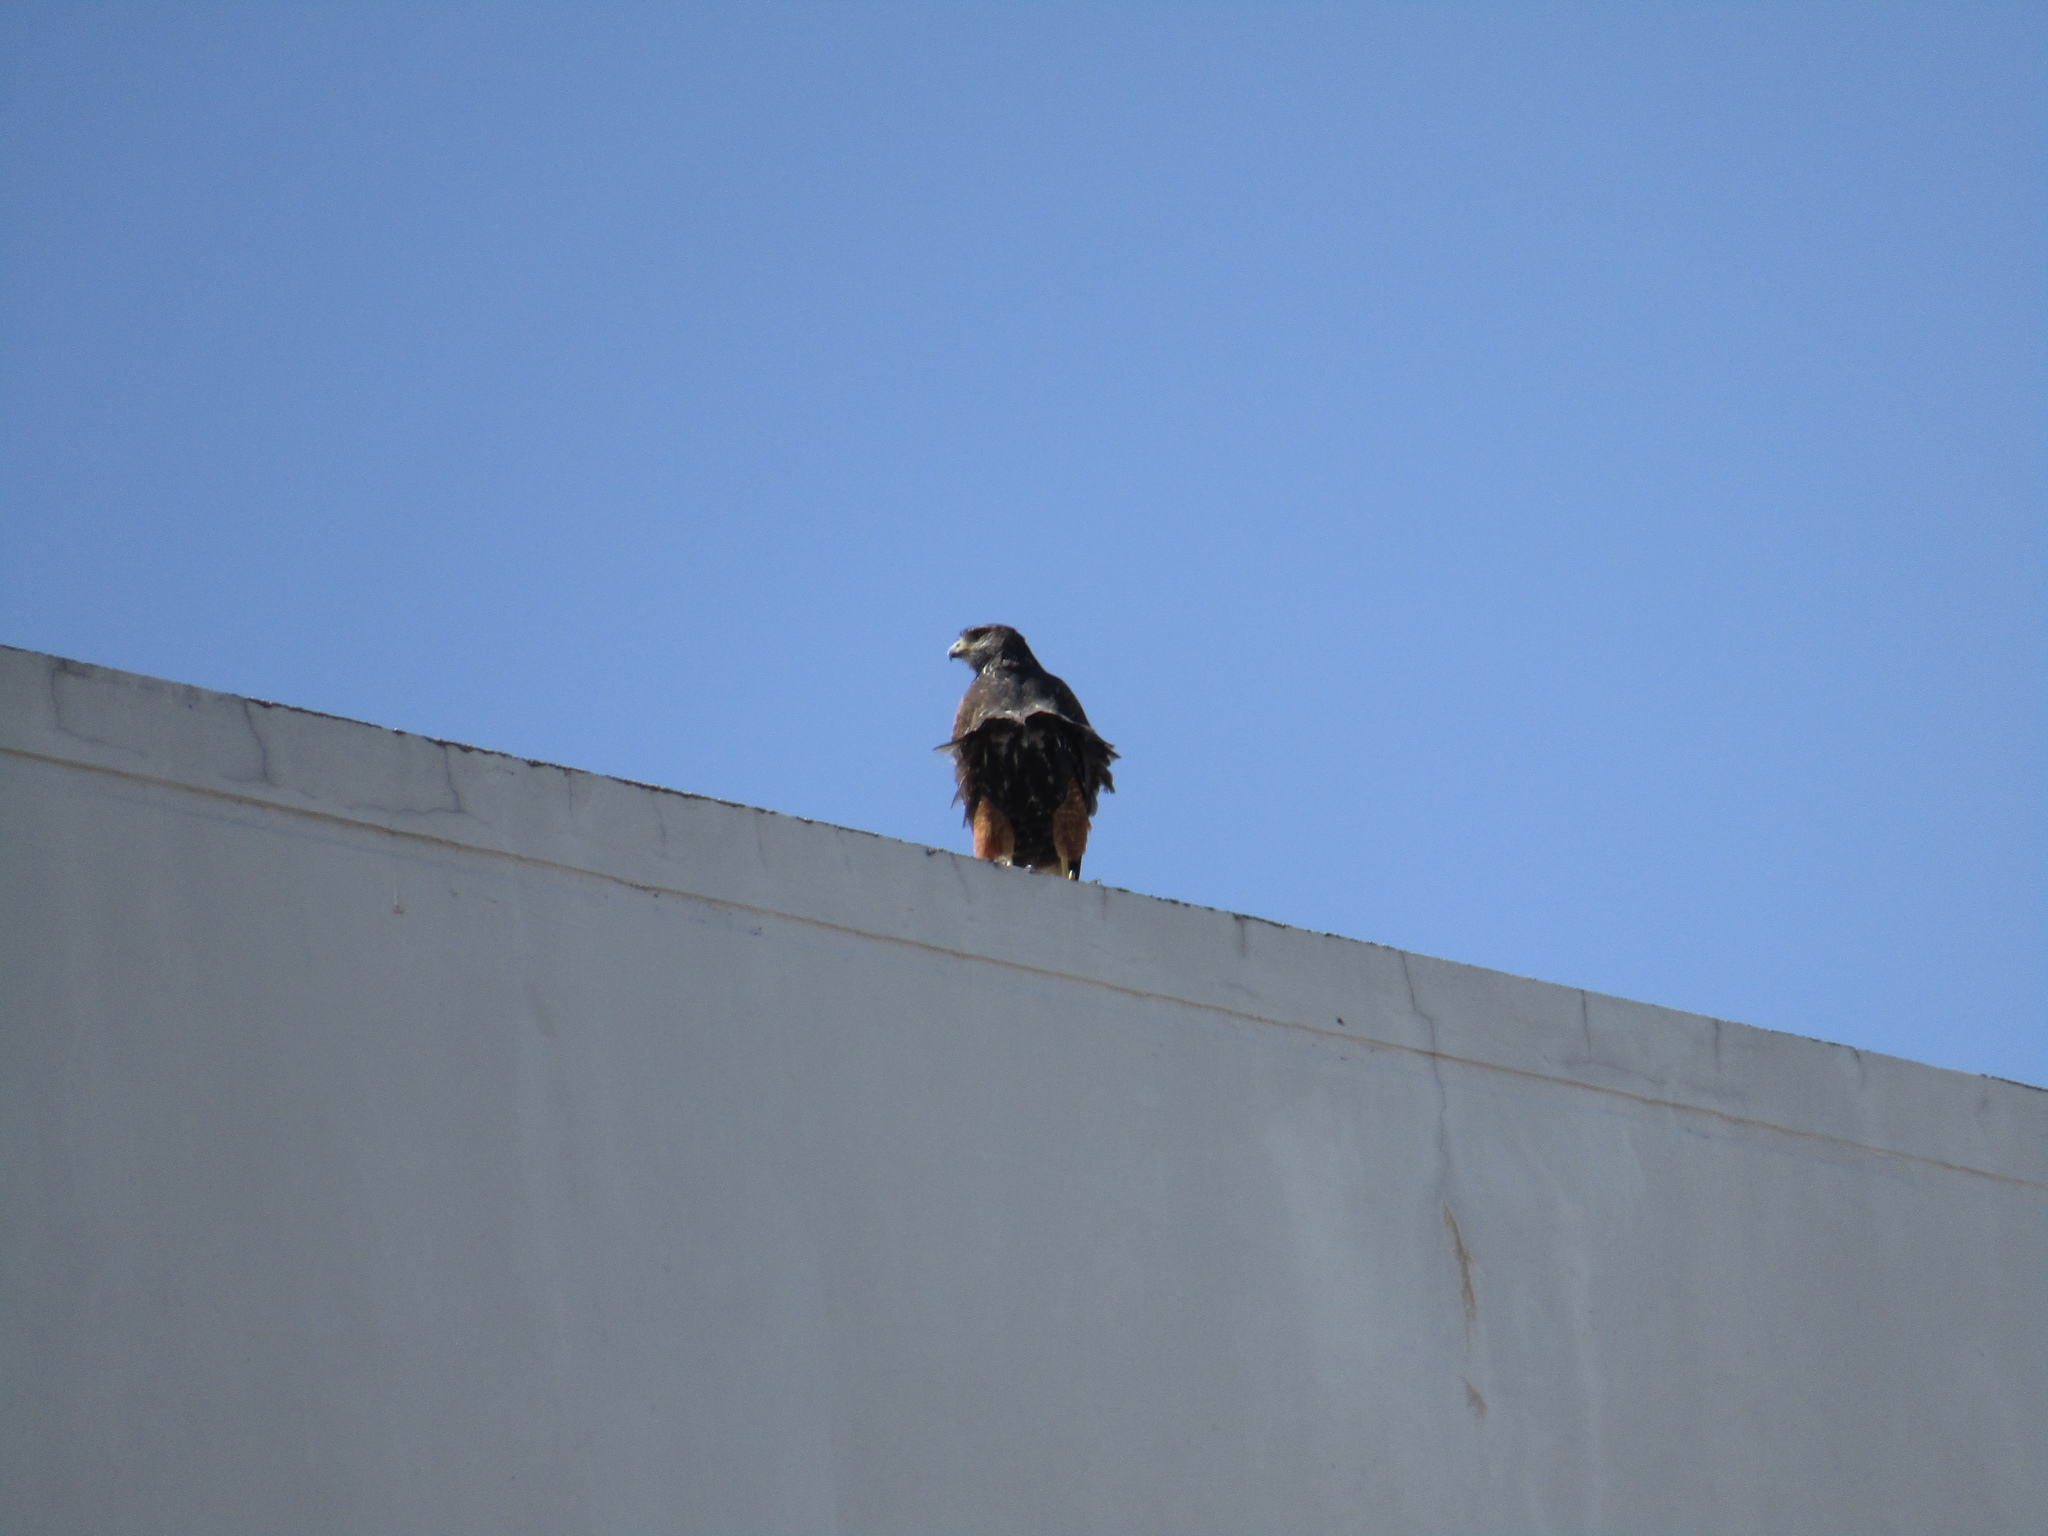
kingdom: Animalia
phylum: Chordata
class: Aves
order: Accipitriformes
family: Accipitridae
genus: Parabuteo
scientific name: Parabuteo unicinctus
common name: Harris's hawk
